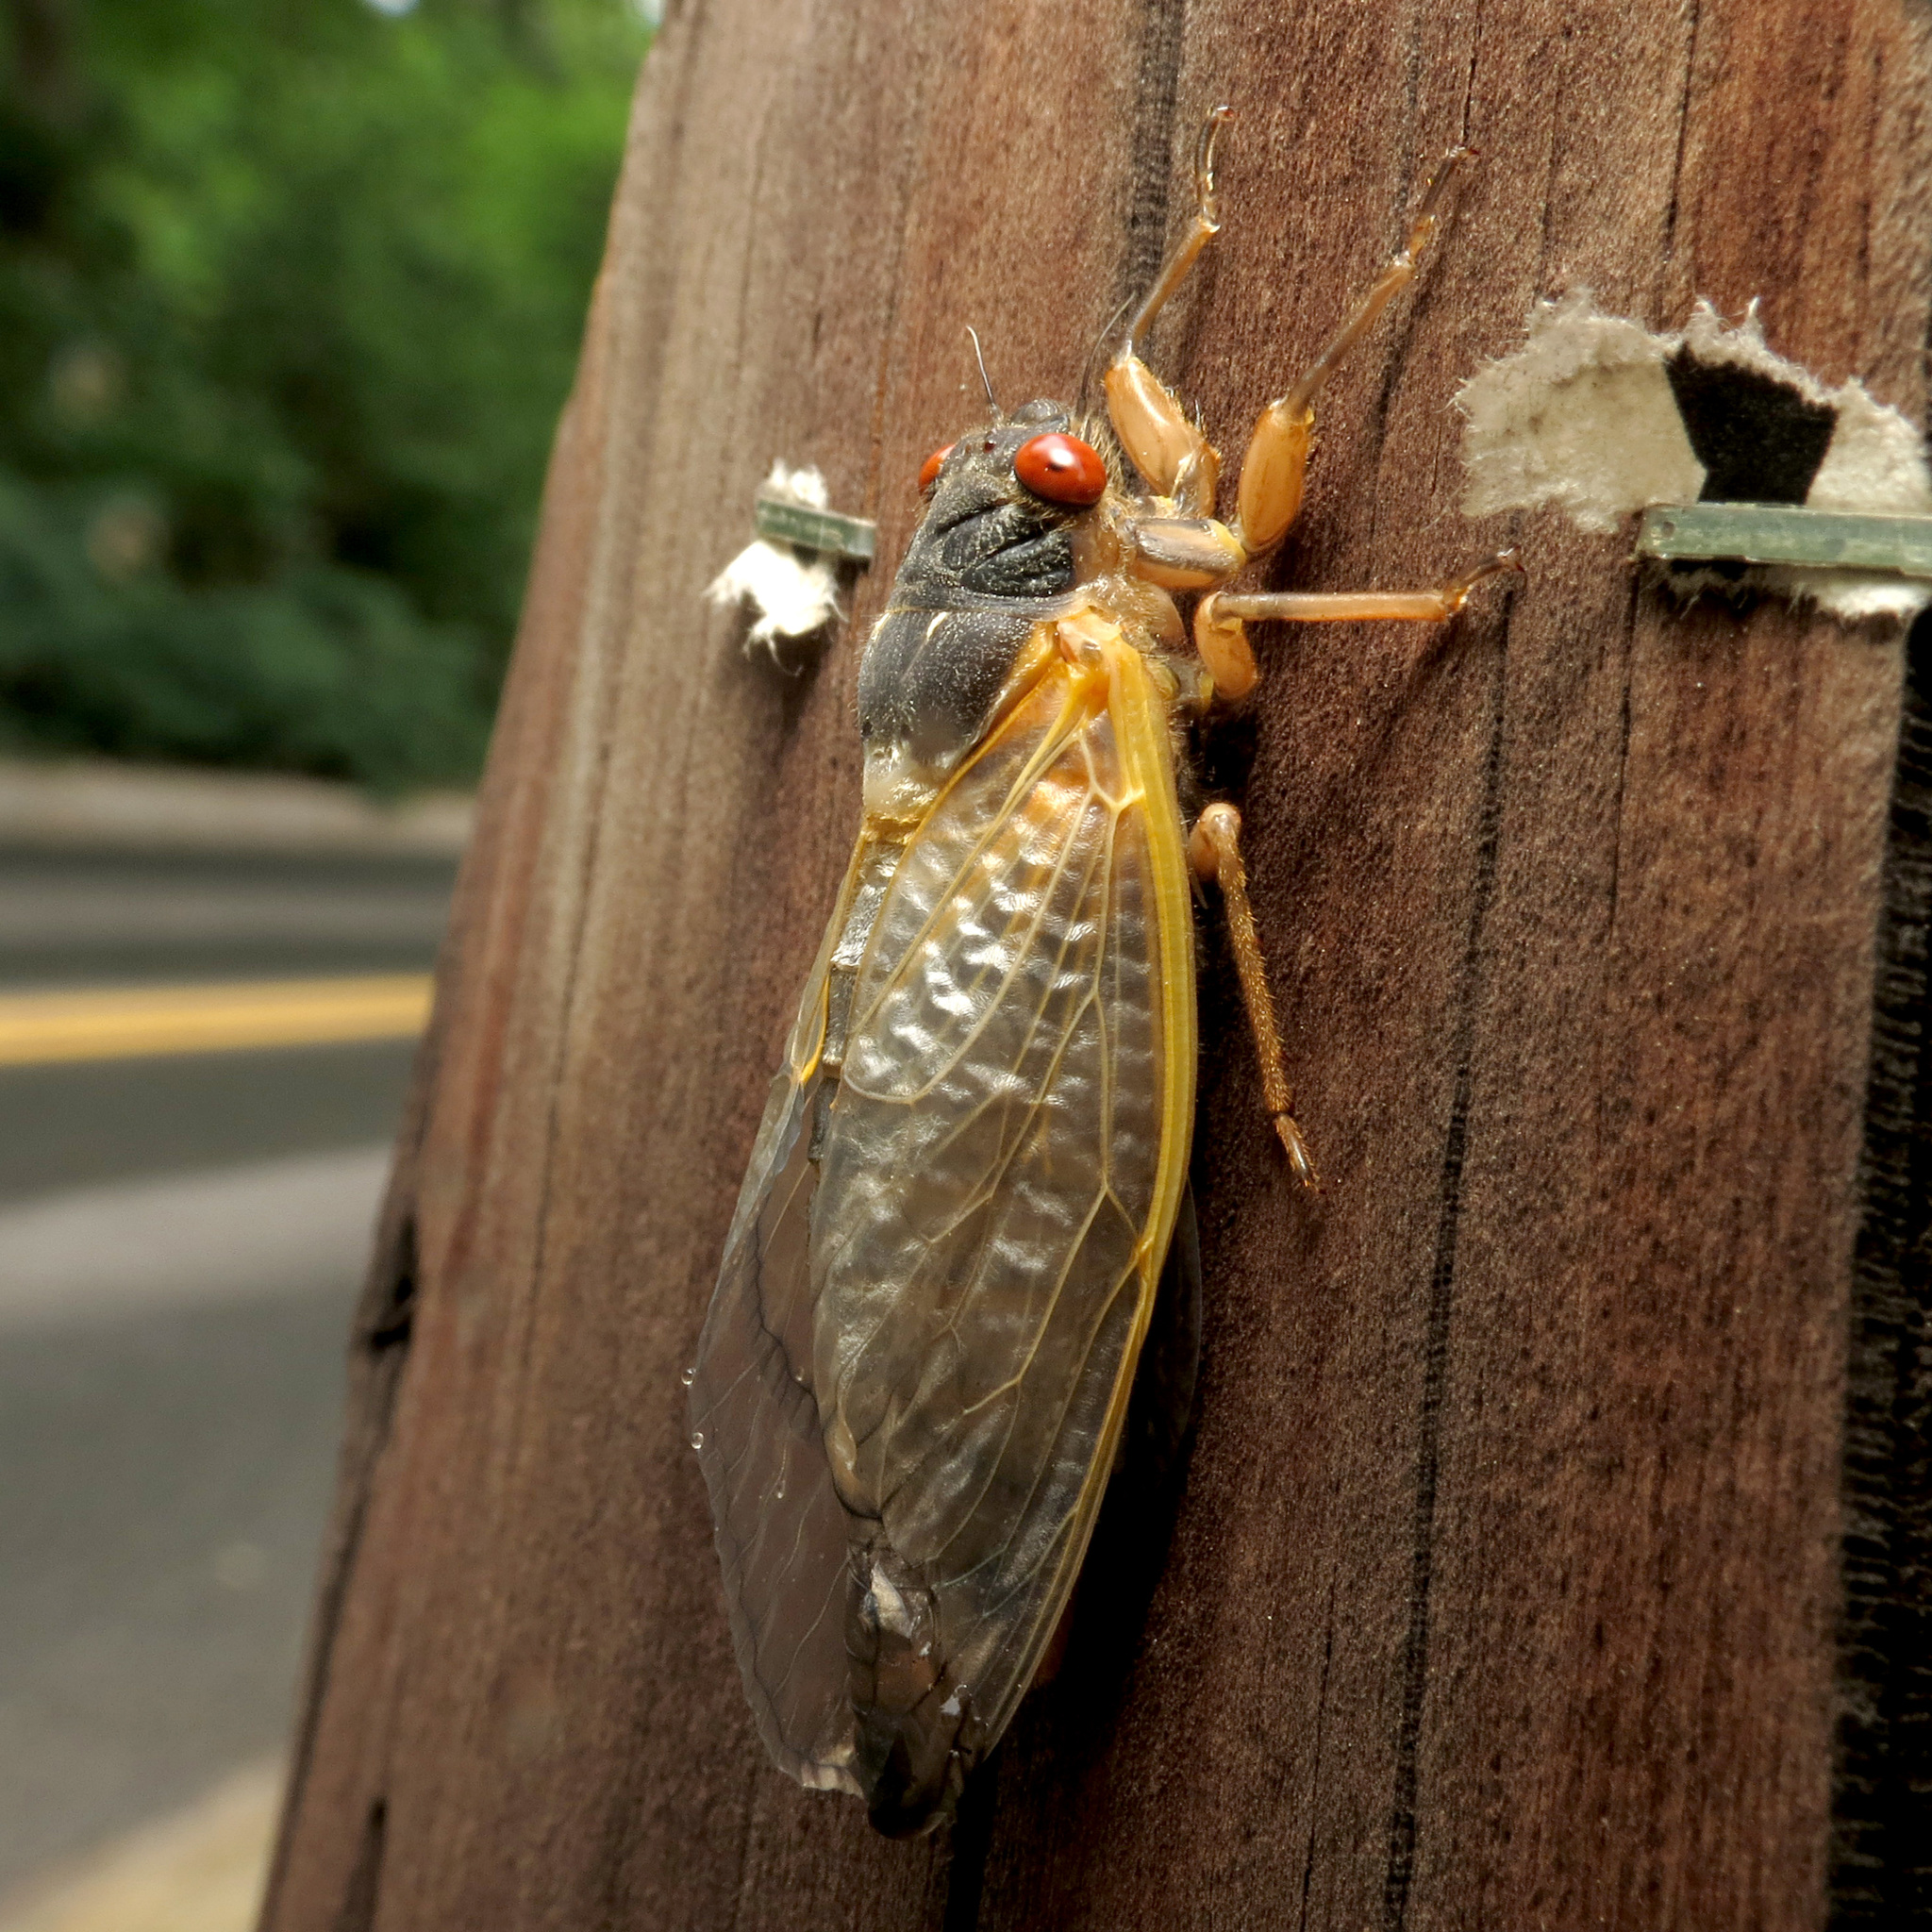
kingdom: Animalia
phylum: Arthropoda
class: Insecta
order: Hemiptera
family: Cicadidae
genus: Magicicada
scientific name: Magicicada septendecim
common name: Periodical cicada
